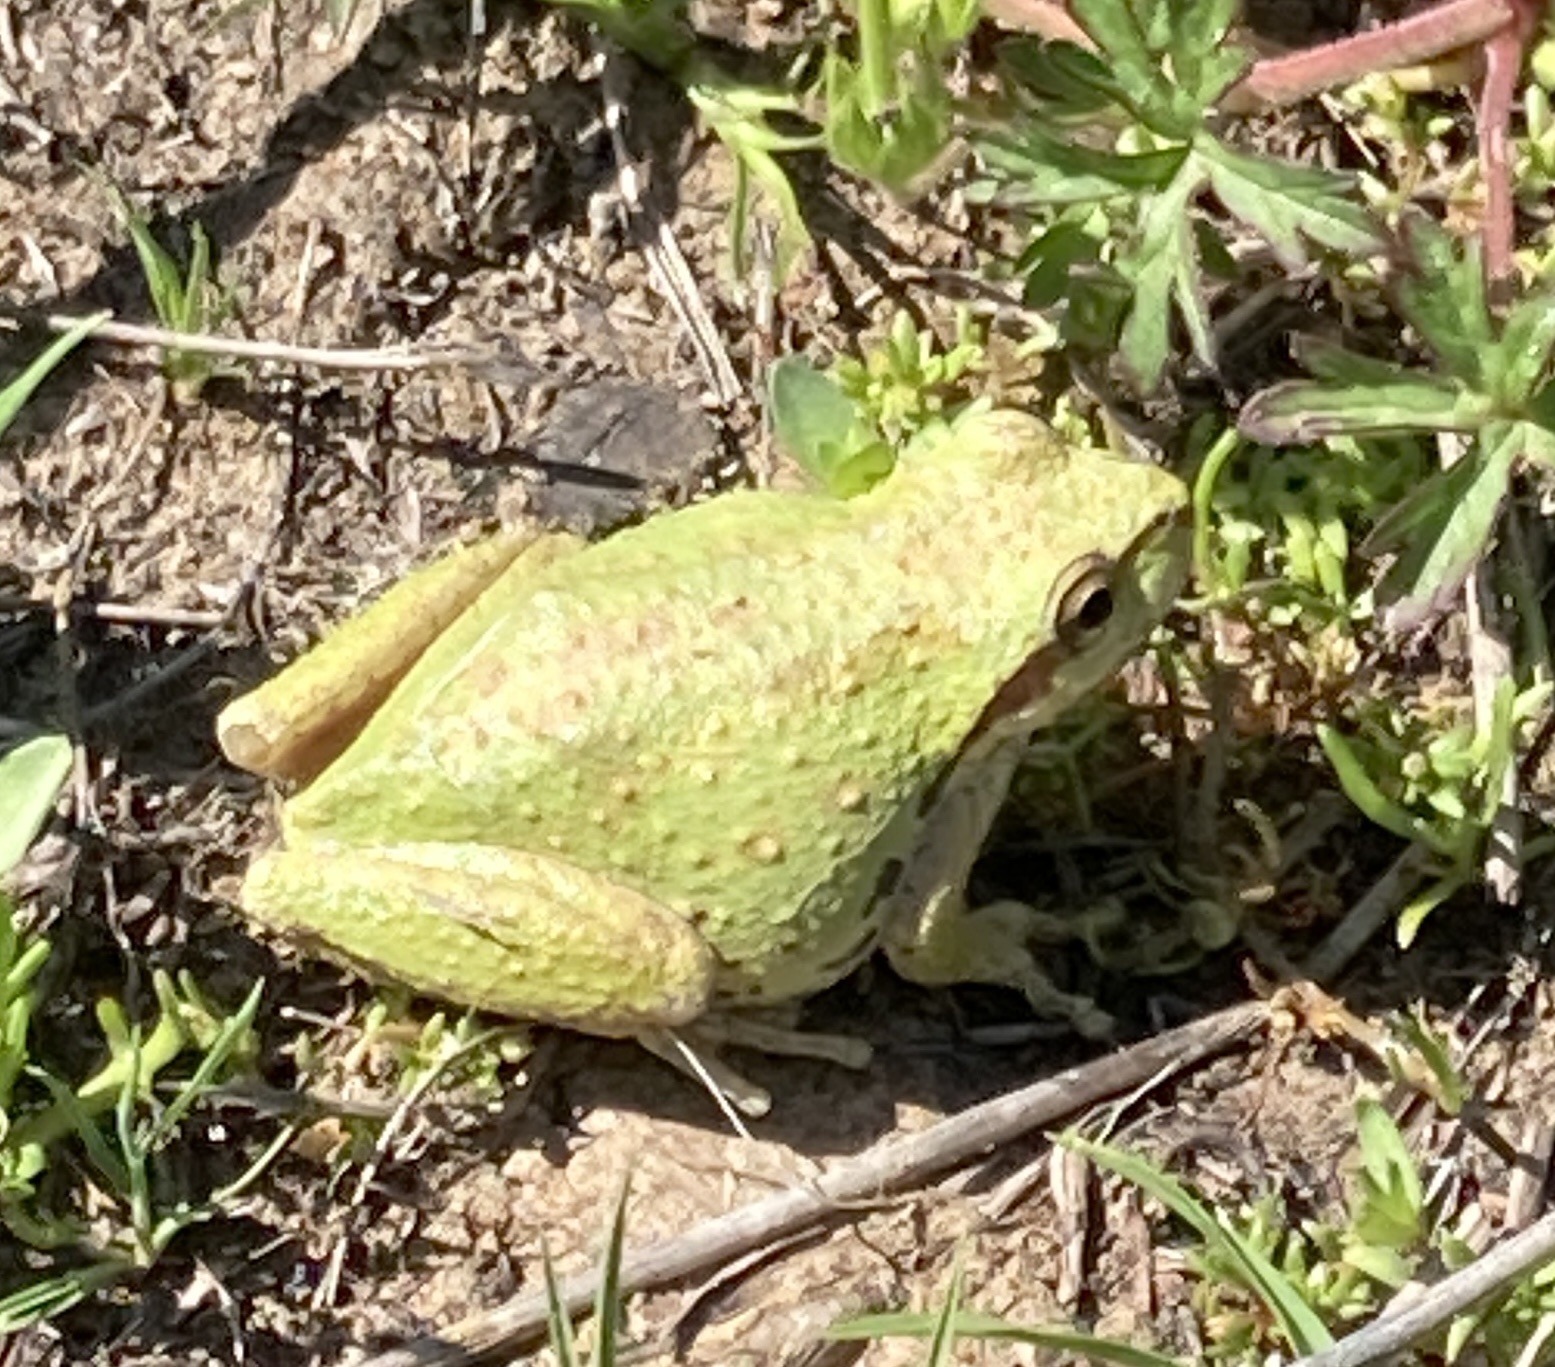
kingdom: Animalia
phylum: Chordata
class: Amphibia
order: Anura
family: Hylidae
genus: Pseudacris
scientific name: Pseudacris regilla
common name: Pacific chorus frog
